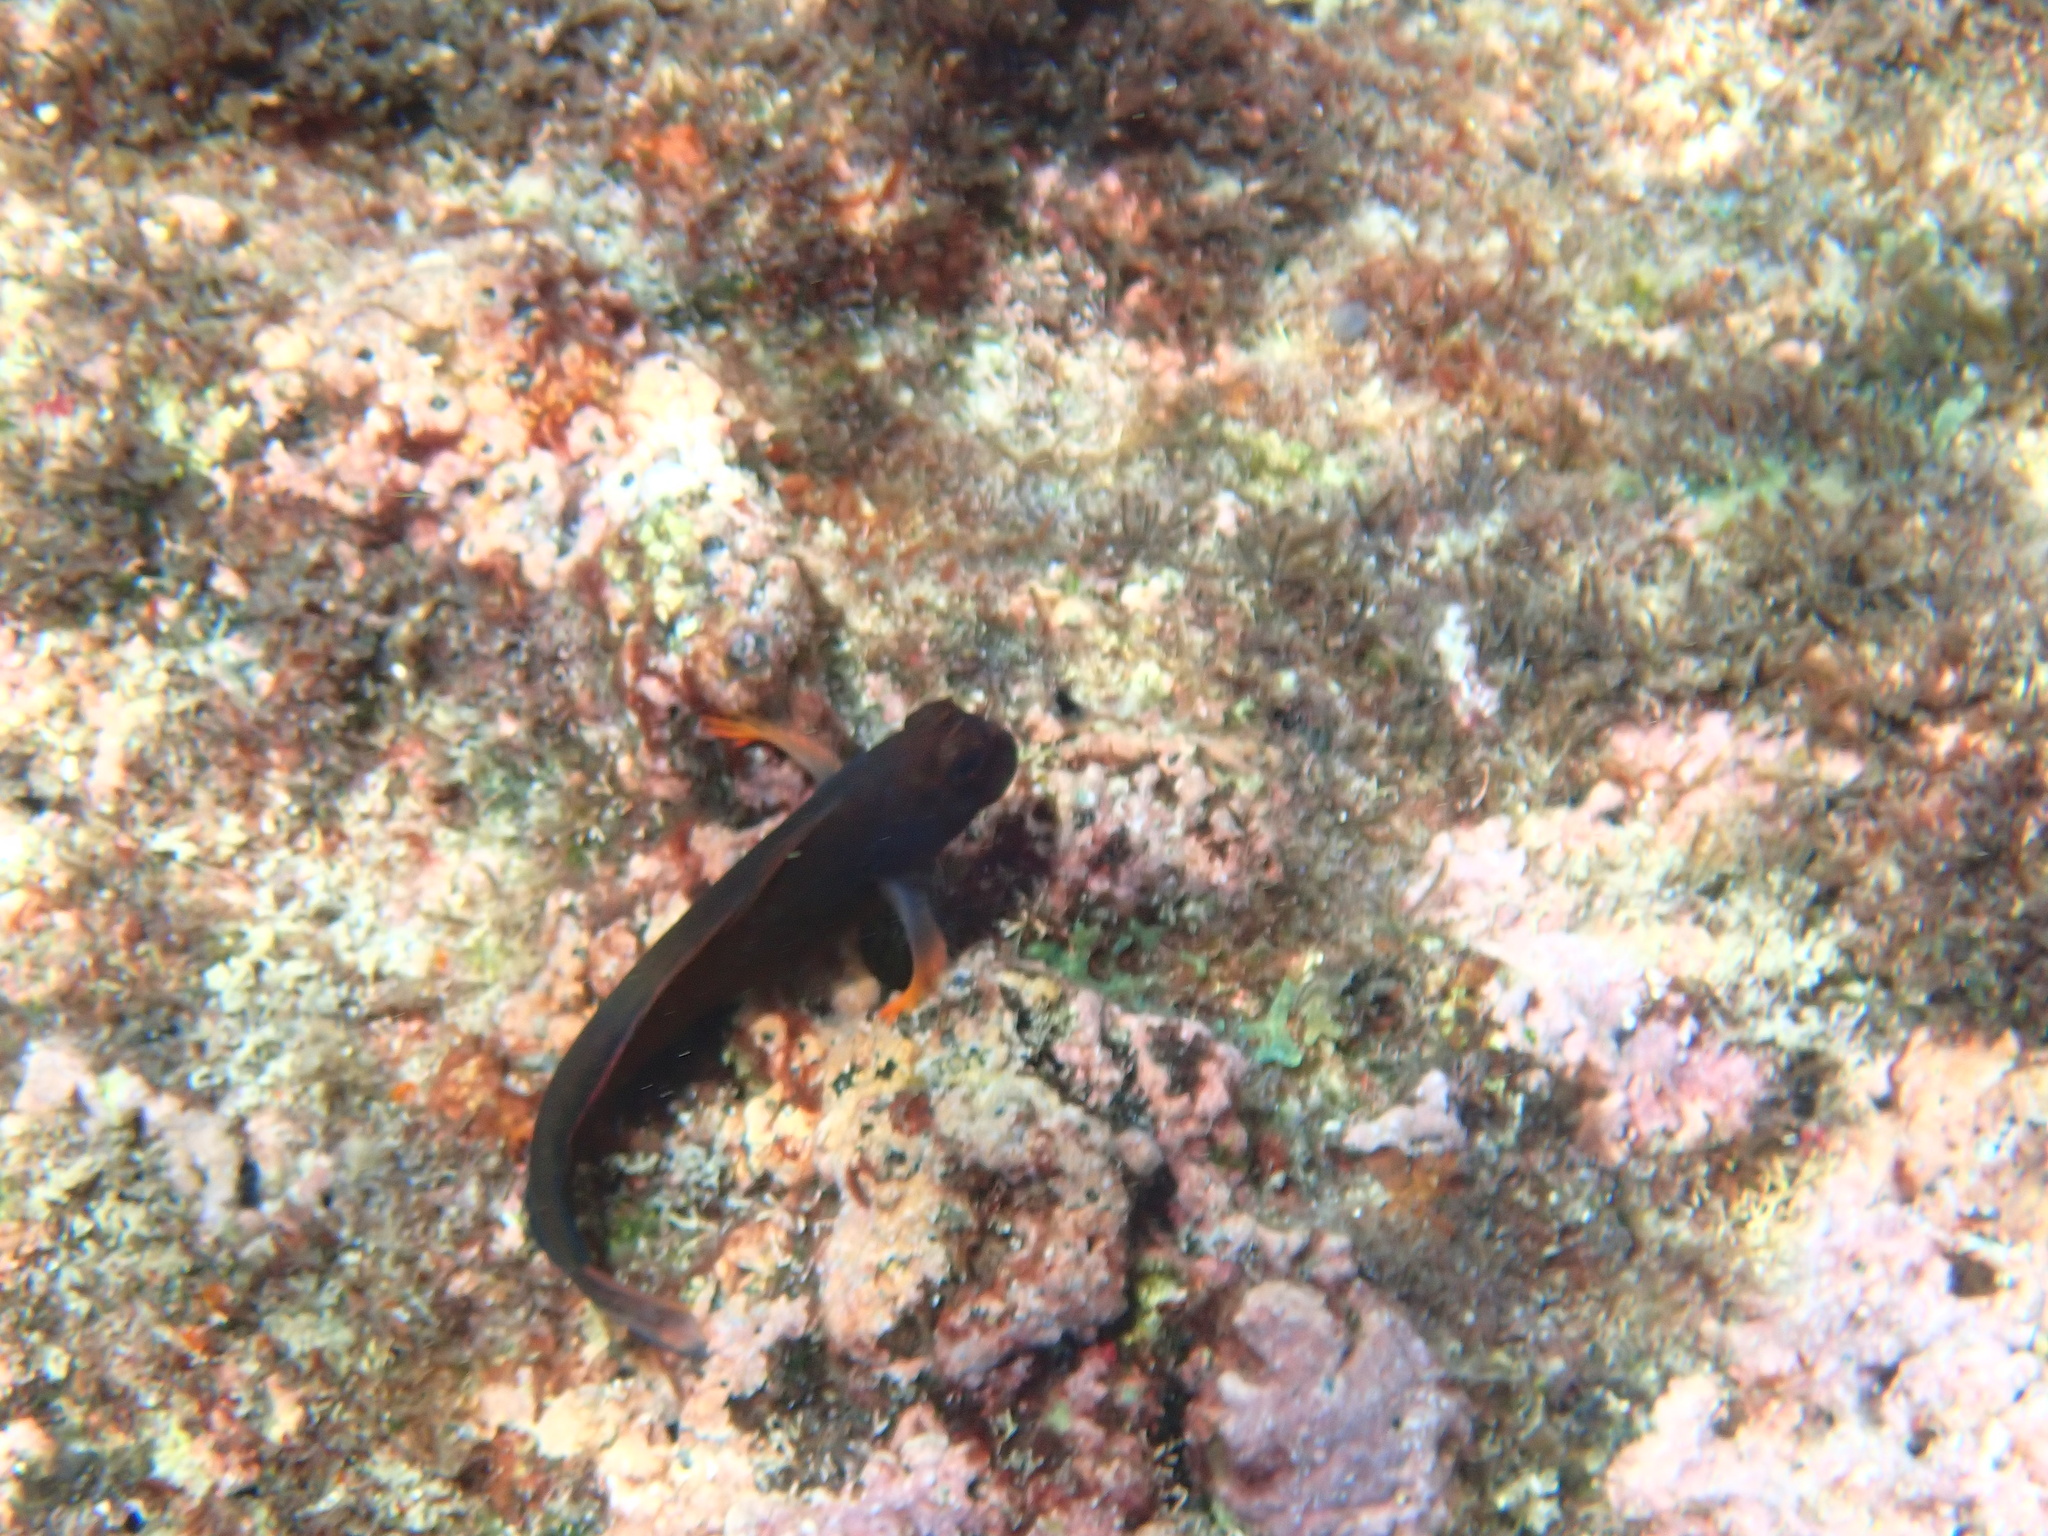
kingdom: Animalia
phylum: Chordata
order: Perciformes
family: Blenniidae
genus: Ophioblennius
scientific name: Ophioblennius macclurei
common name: Redlip blenny
